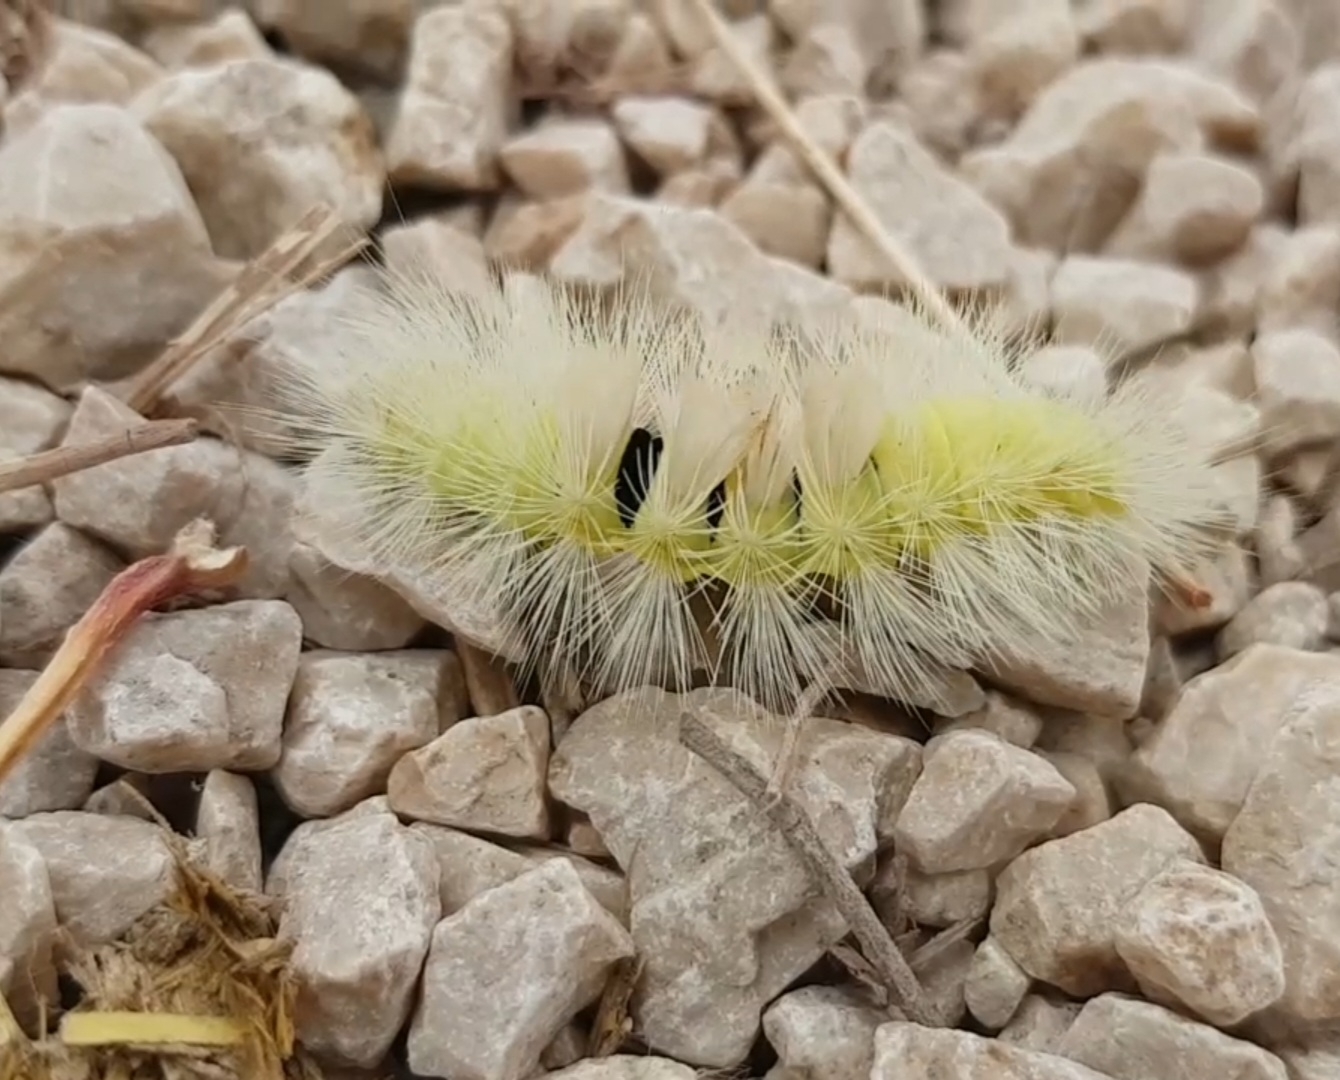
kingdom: Animalia
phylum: Arthropoda
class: Insecta
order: Lepidoptera
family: Erebidae
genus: Calliteara
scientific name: Calliteara pudibunda
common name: Pale tussock
